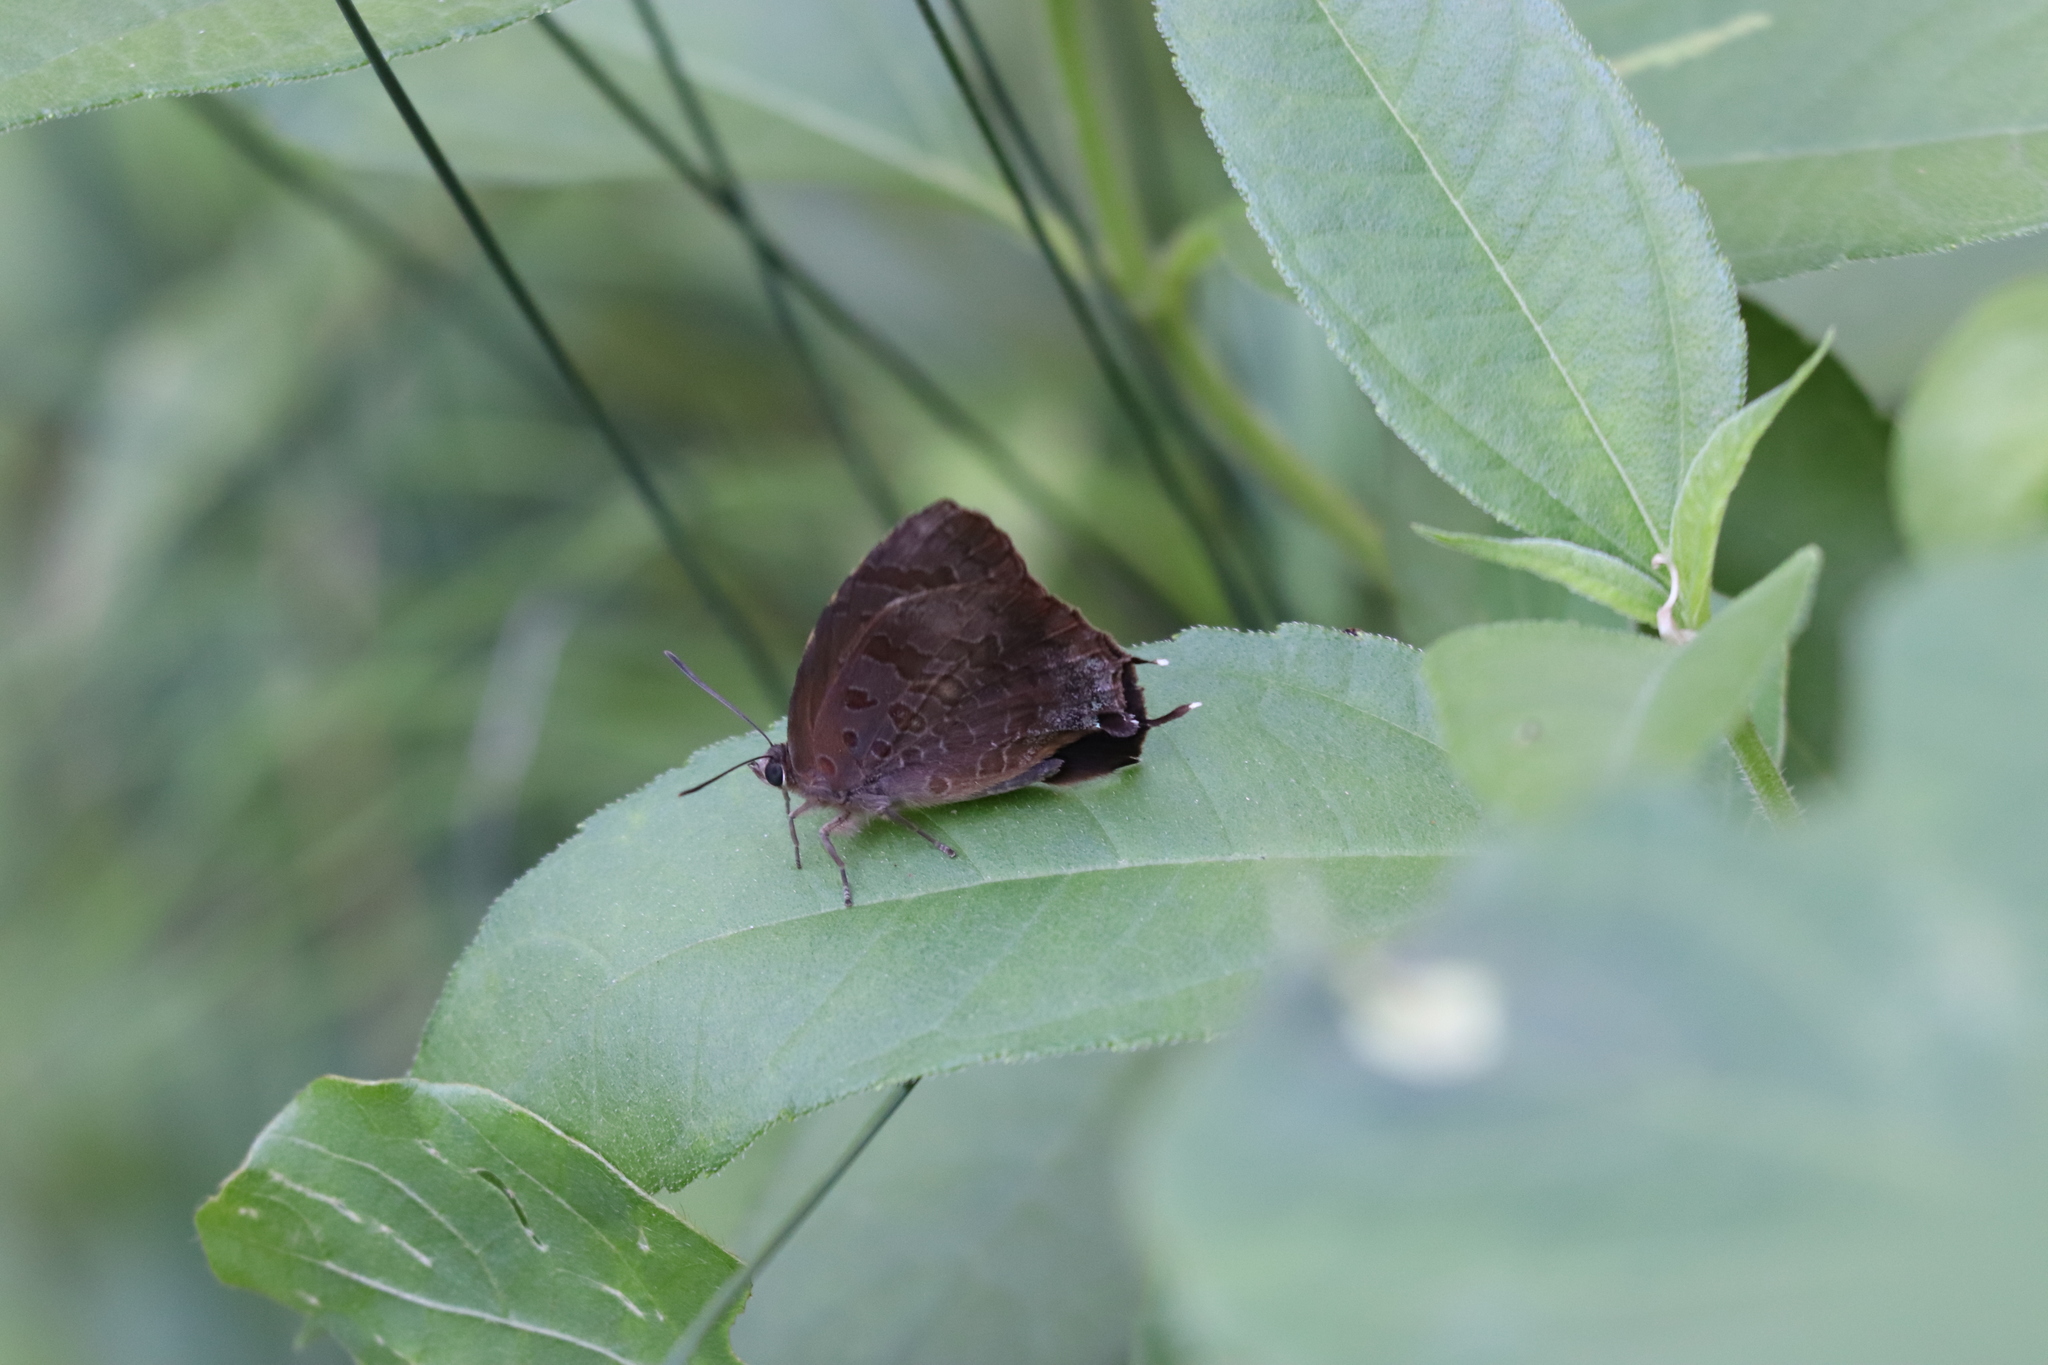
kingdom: Animalia
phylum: Arthropoda
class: Insecta
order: Lepidoptera
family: Lycaenidae
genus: Arhopala
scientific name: Arhopala bazalus
